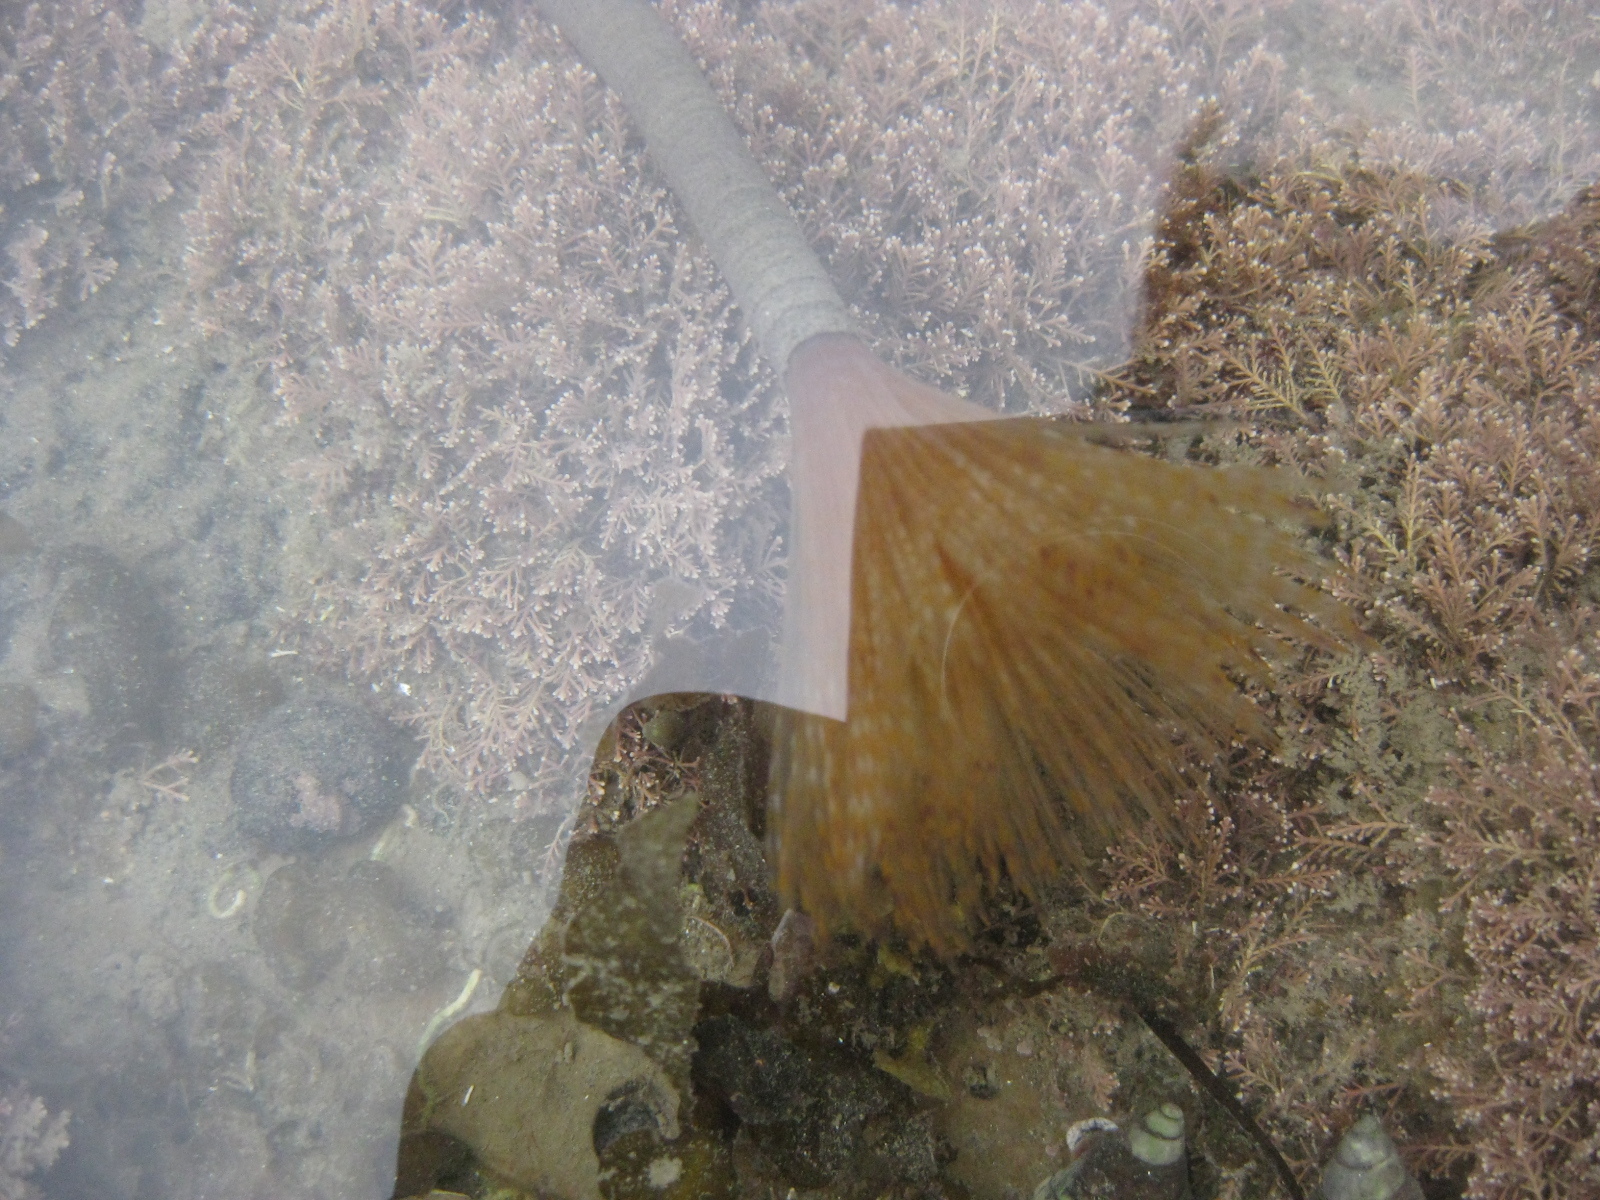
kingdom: Animalia
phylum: Annelida
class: Polychaeta
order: Sabellida
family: Sabellidae
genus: Sabella
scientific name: Sabella spallanzanii
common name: Feather duster worm
